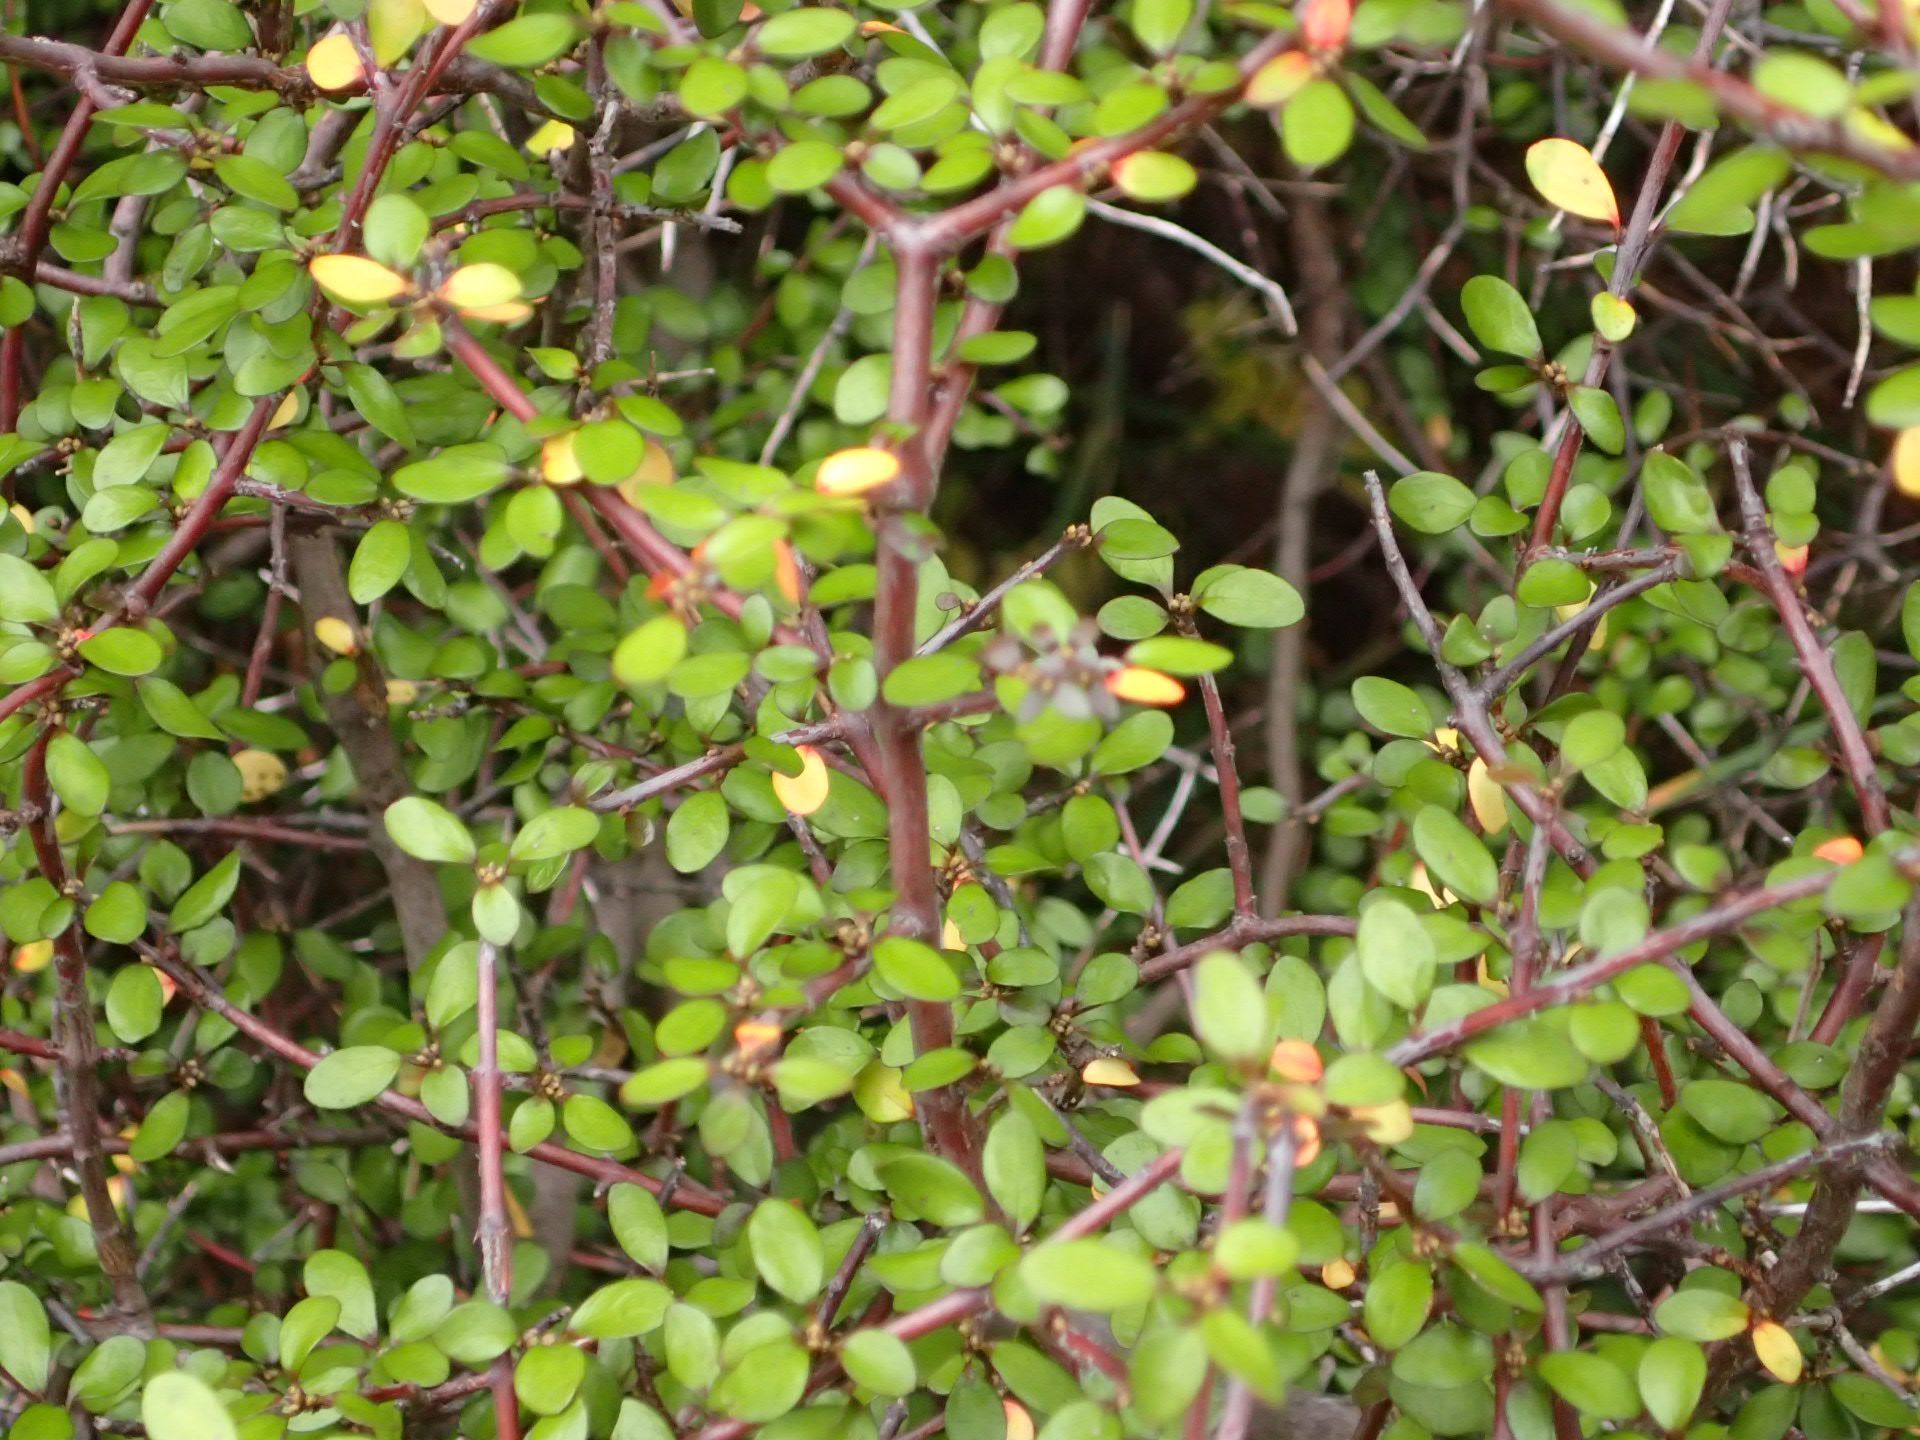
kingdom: Plantae
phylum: Tracheophyta
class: Magnoliopsida
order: Oxalidales
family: Elaeocarpaceae
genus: Aristotelia
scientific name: Aristotelia fruticosa
